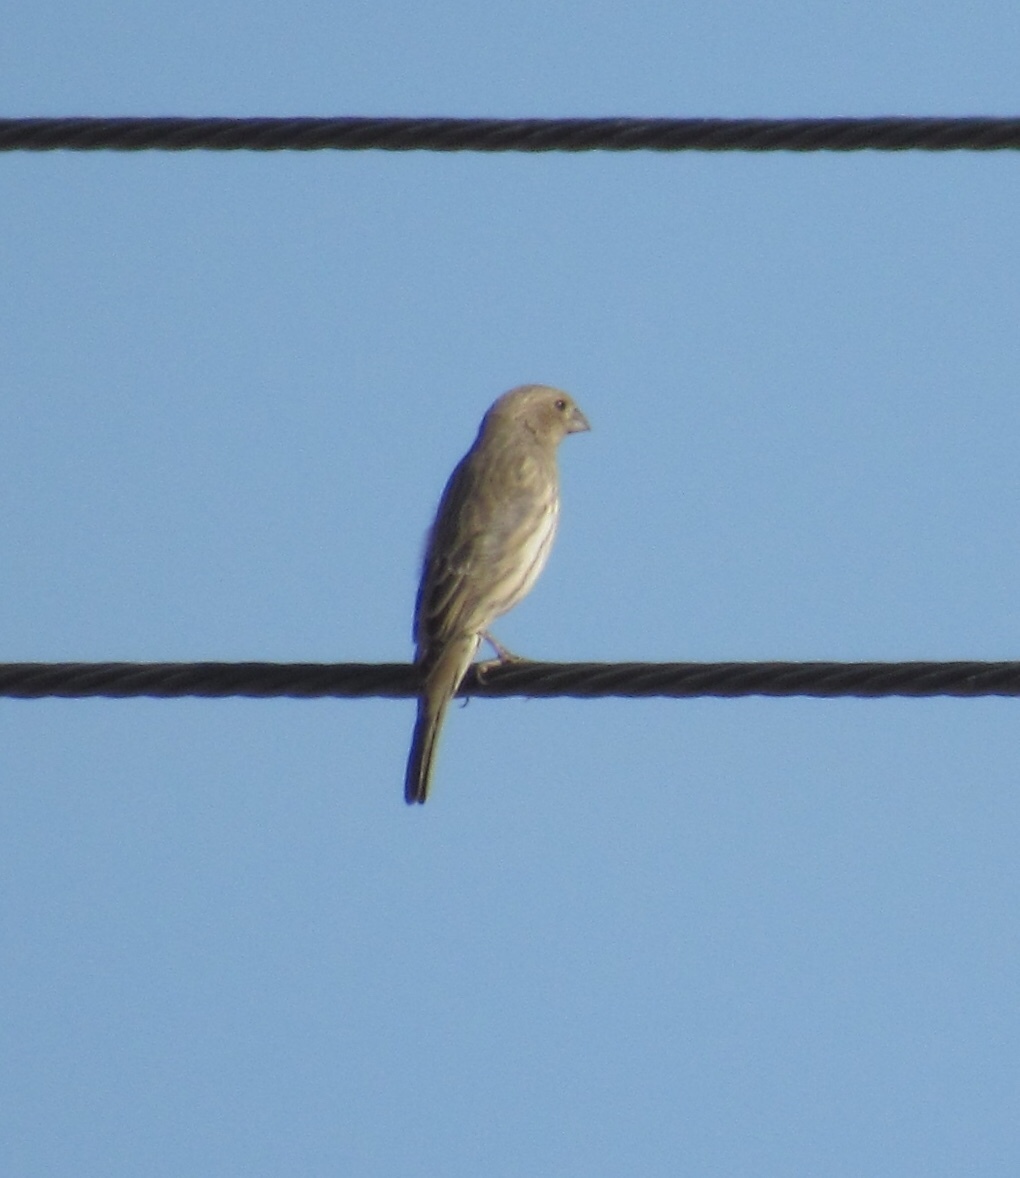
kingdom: Animalia
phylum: Chordata
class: Aves
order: Passeriformes
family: Fringillidae
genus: Haemorhous
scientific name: Haemorhous mexicanus
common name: House finch
